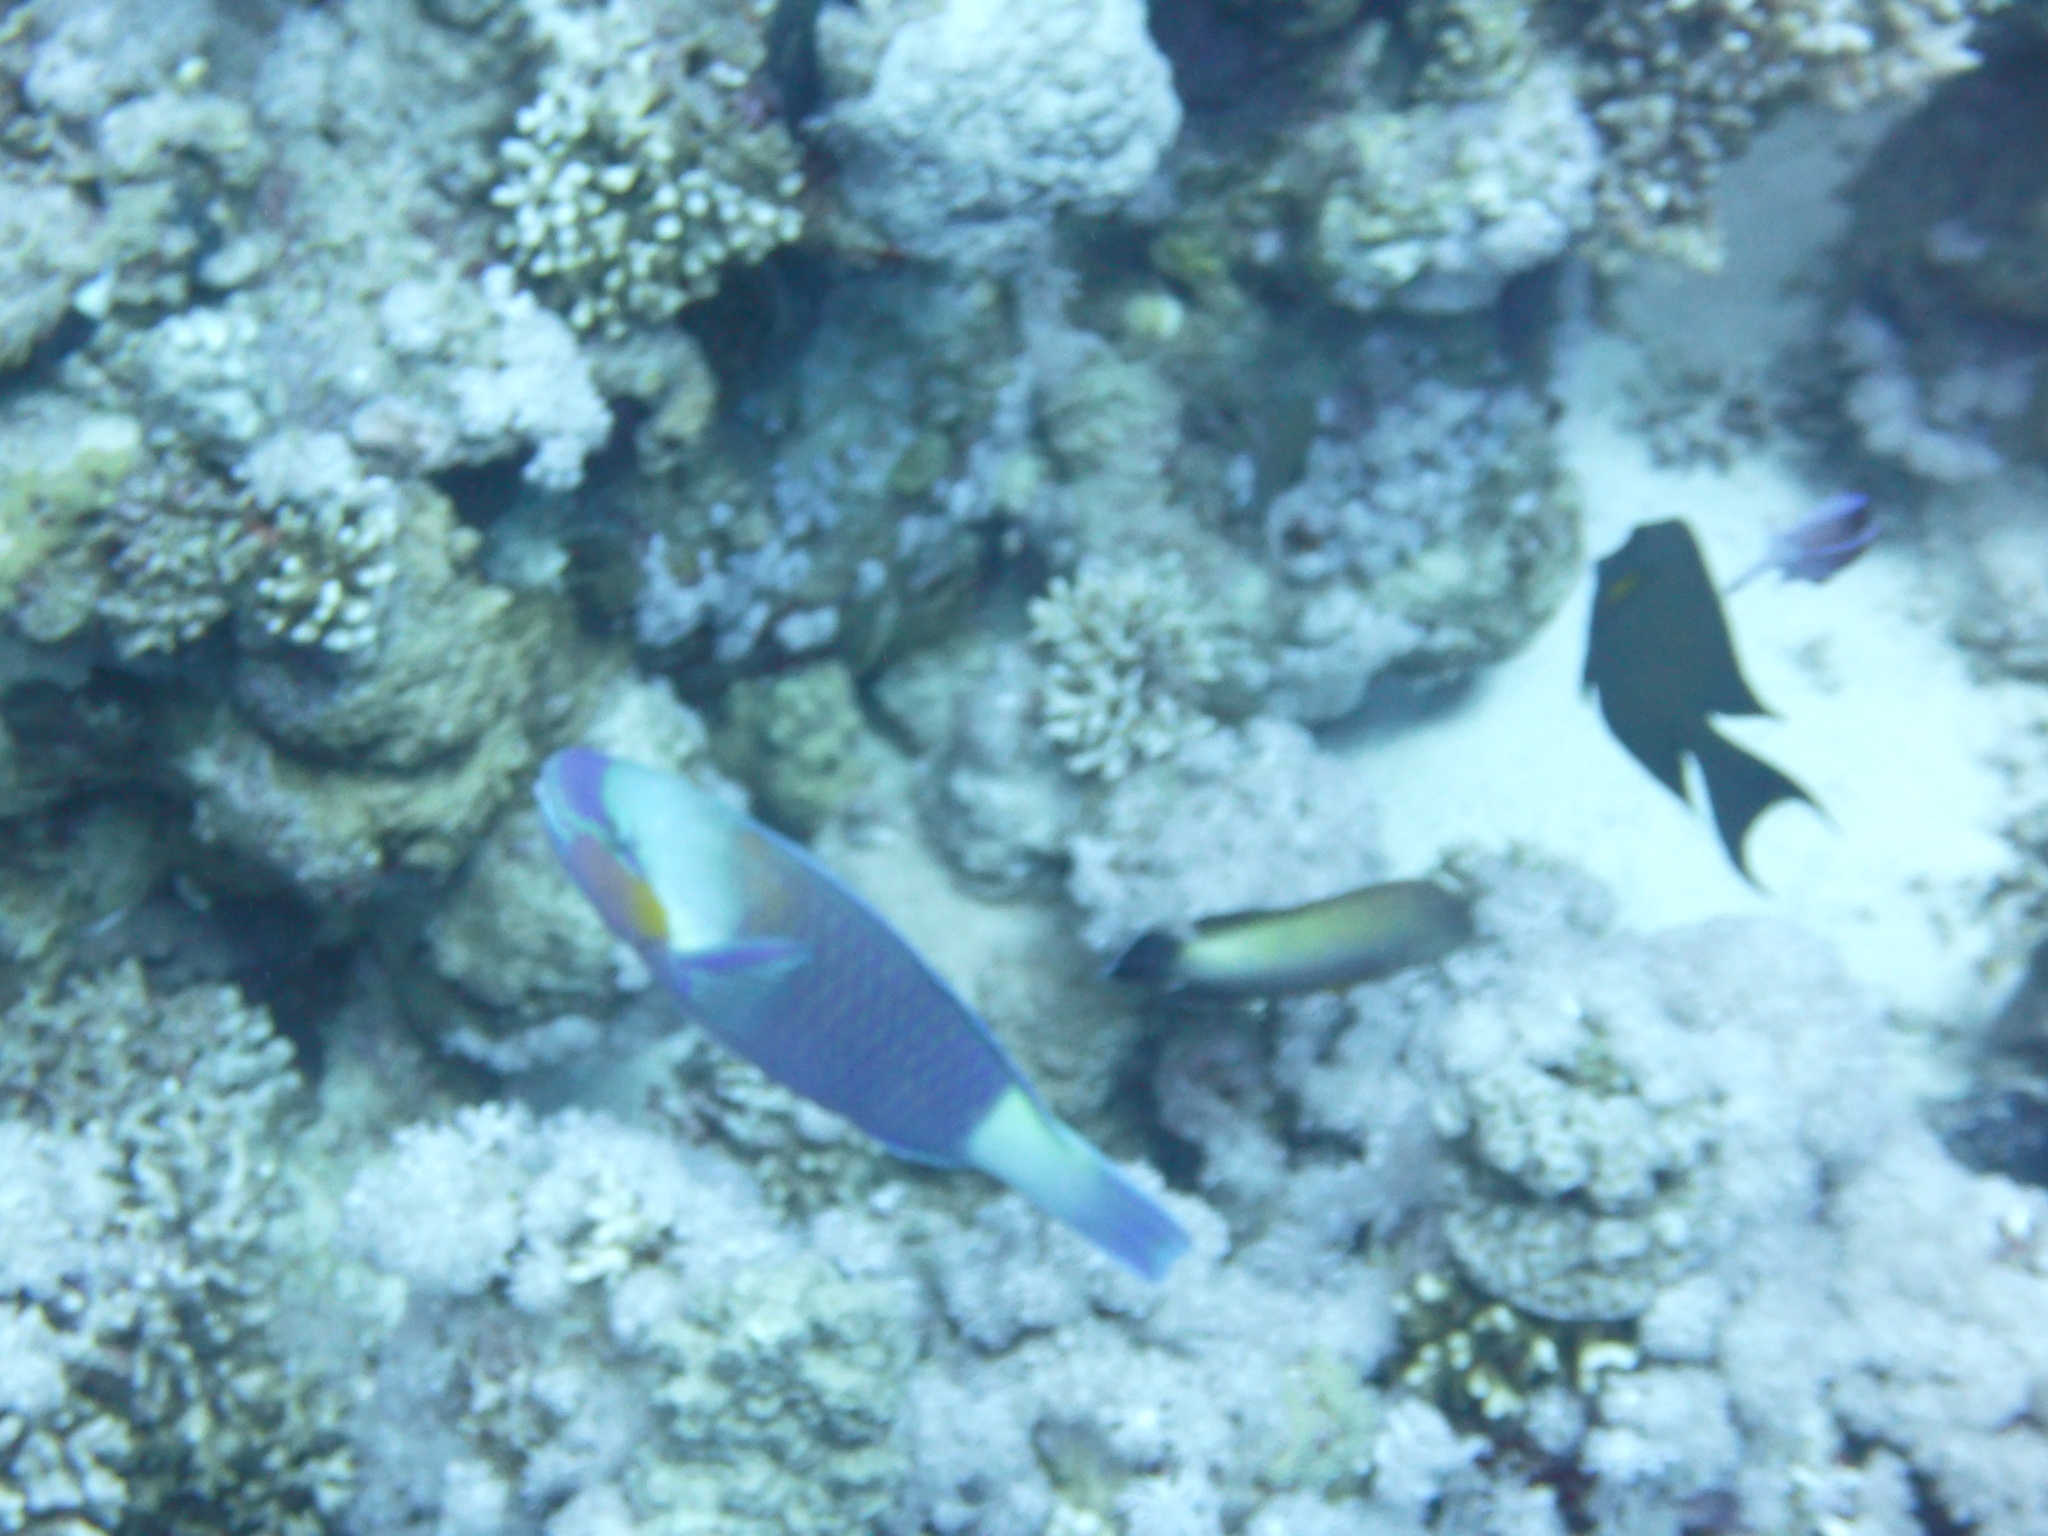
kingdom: Animalia
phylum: Chordata
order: Perciformes
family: Scaridae
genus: Chlorurus
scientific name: Chlorurus sordidus
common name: Bullethead parrotfish
